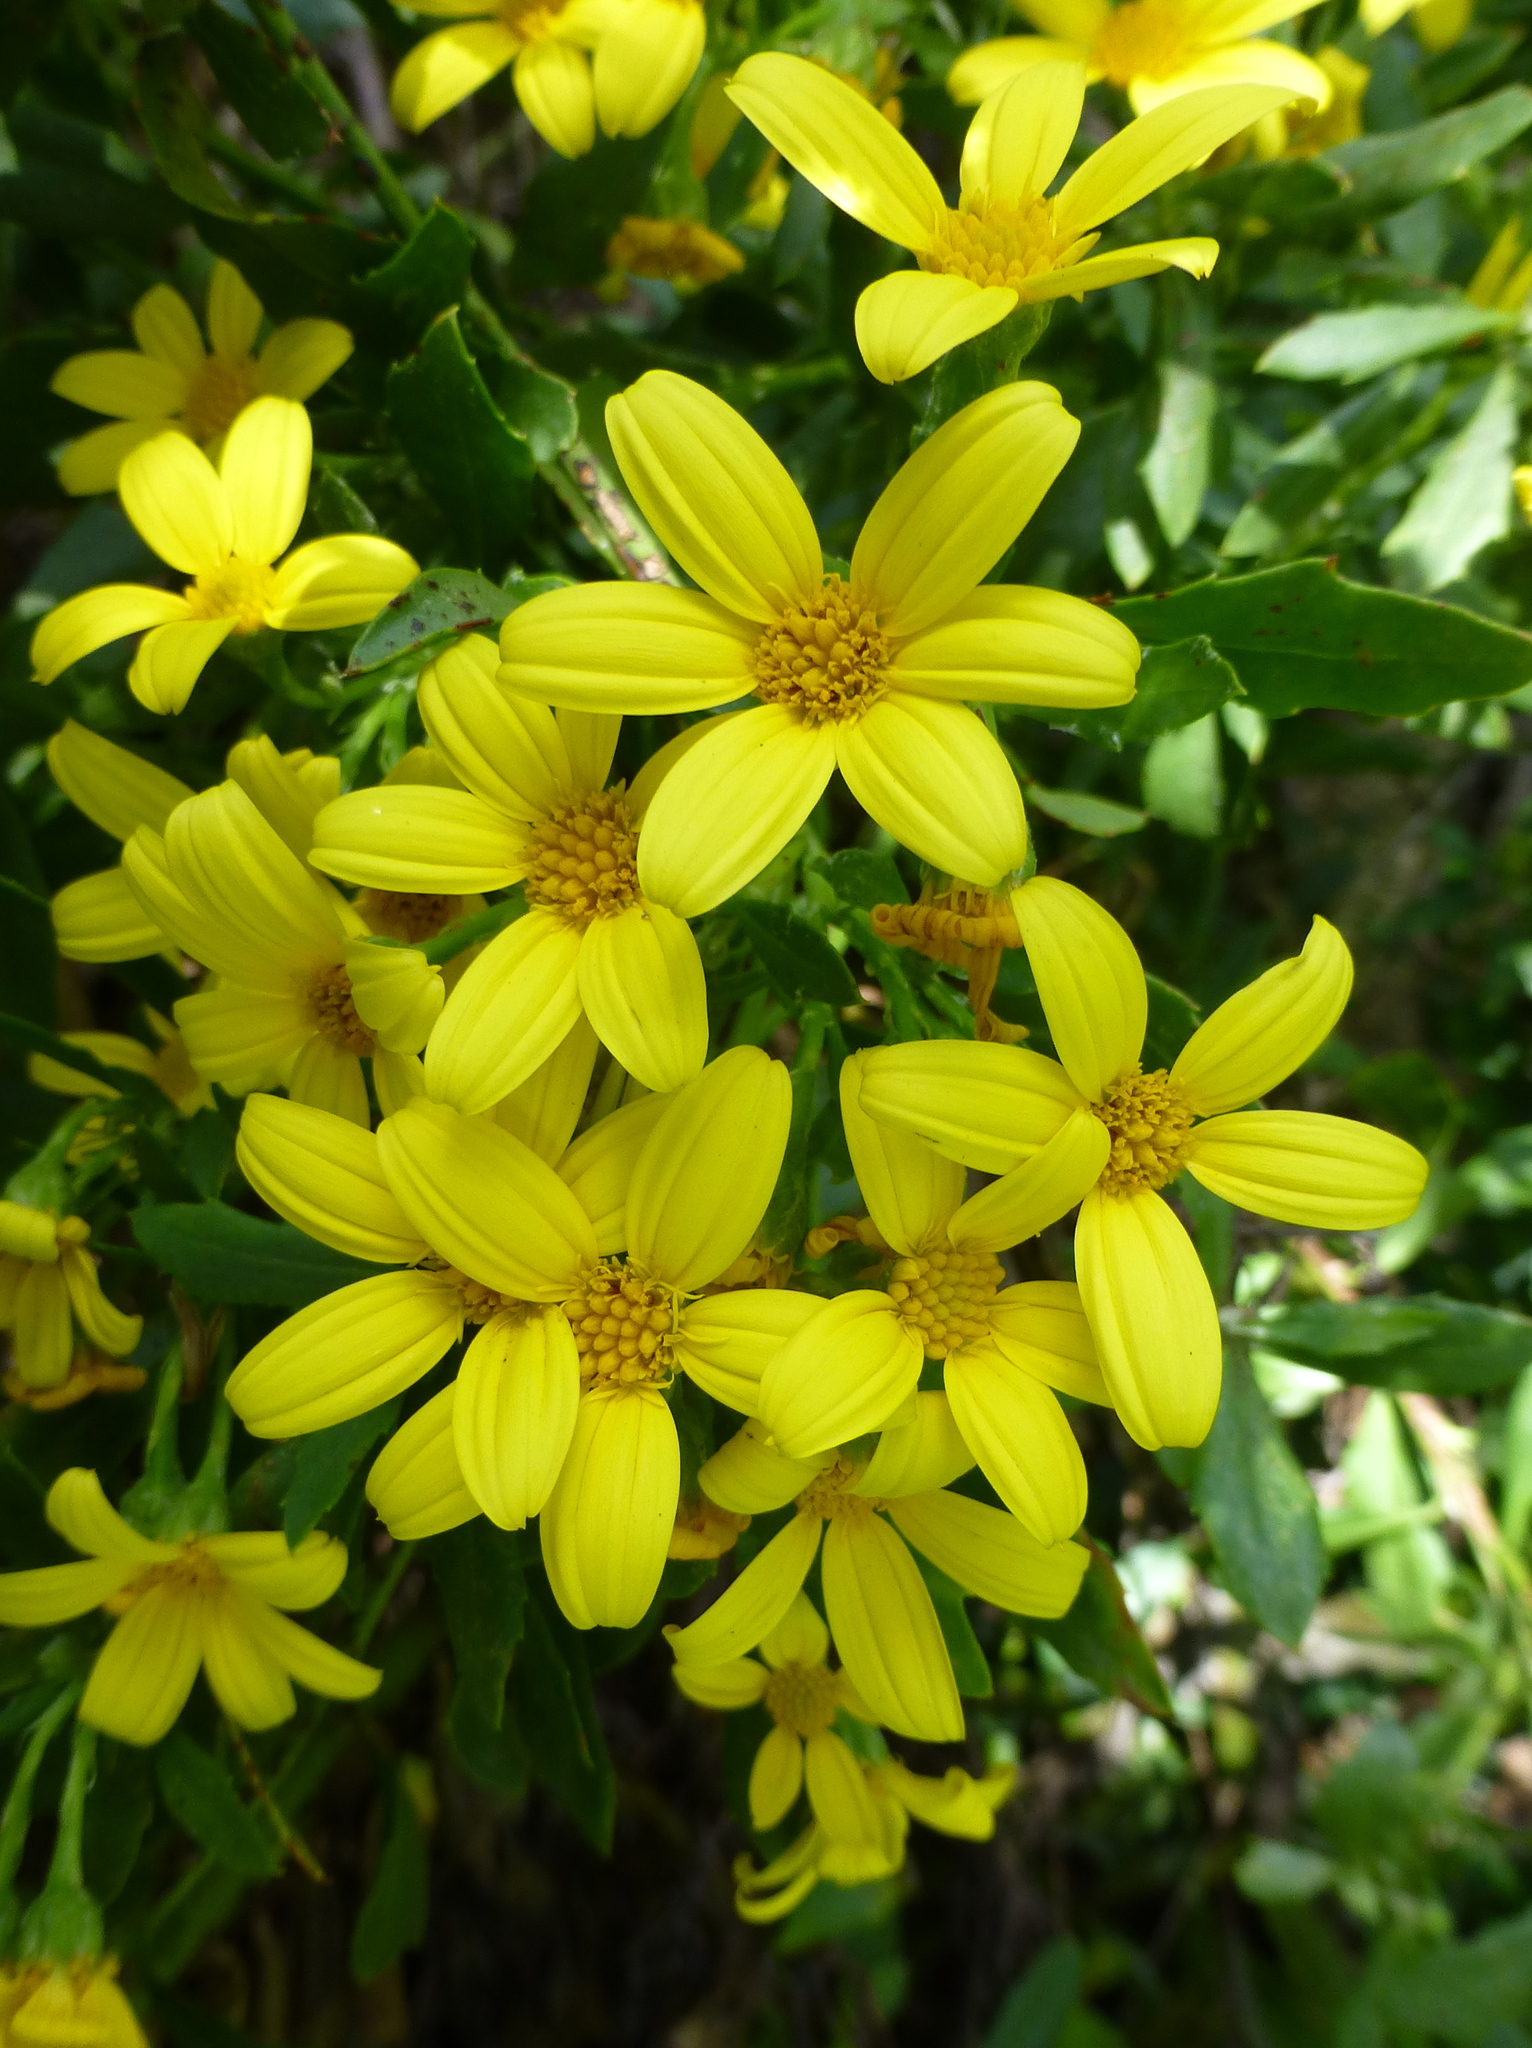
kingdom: Plantae
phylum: Tracheophyta
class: Magnoliopsida
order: Asterales
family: Asteraceae
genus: Osteospermum
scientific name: Osteospermum moniliferum
